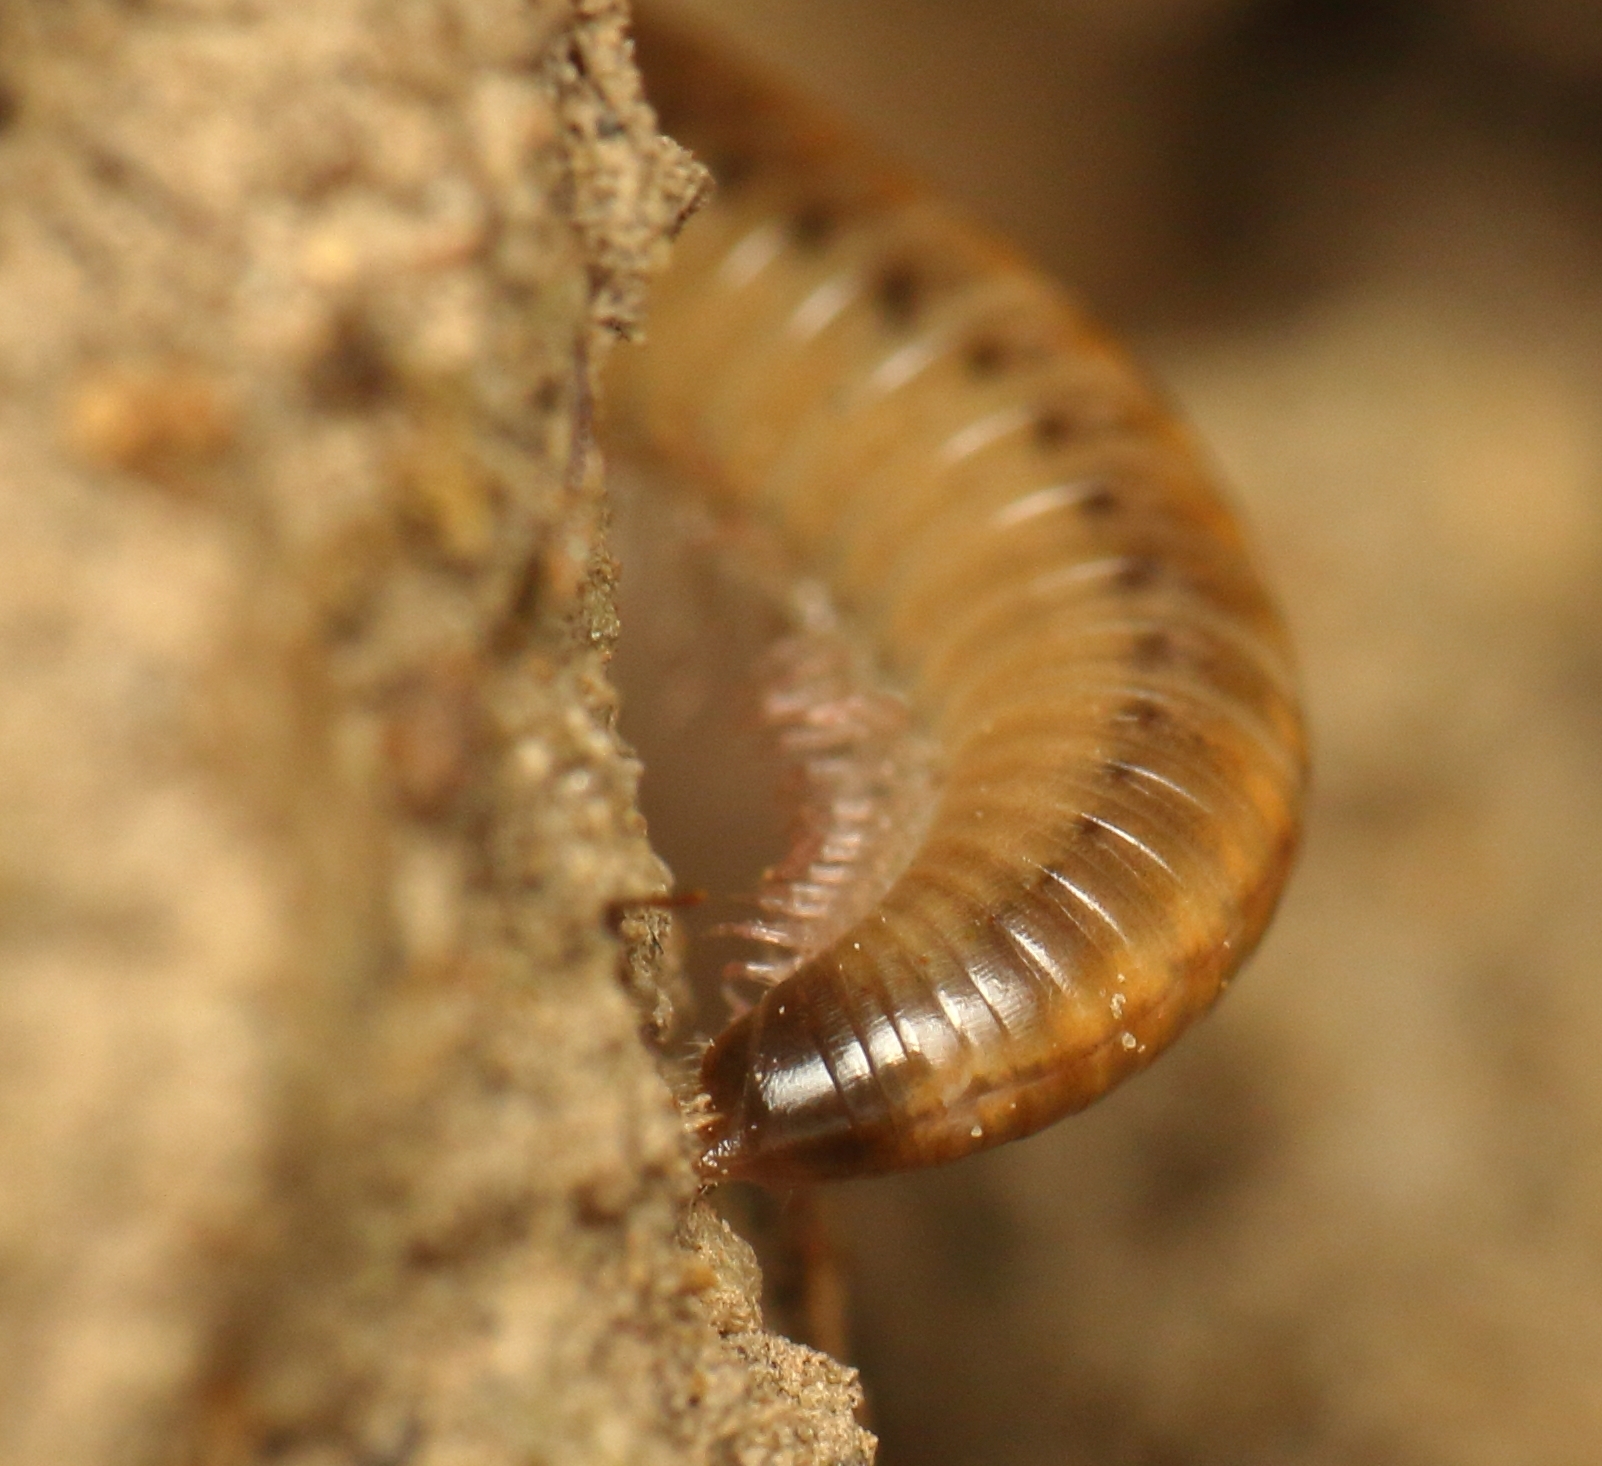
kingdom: Animalia
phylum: Arthropoda
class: Diplopoda
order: Julida
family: Julidae
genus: Ommatoiulus
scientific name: Ommatoiulus moreleti
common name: Portuguese millipede
